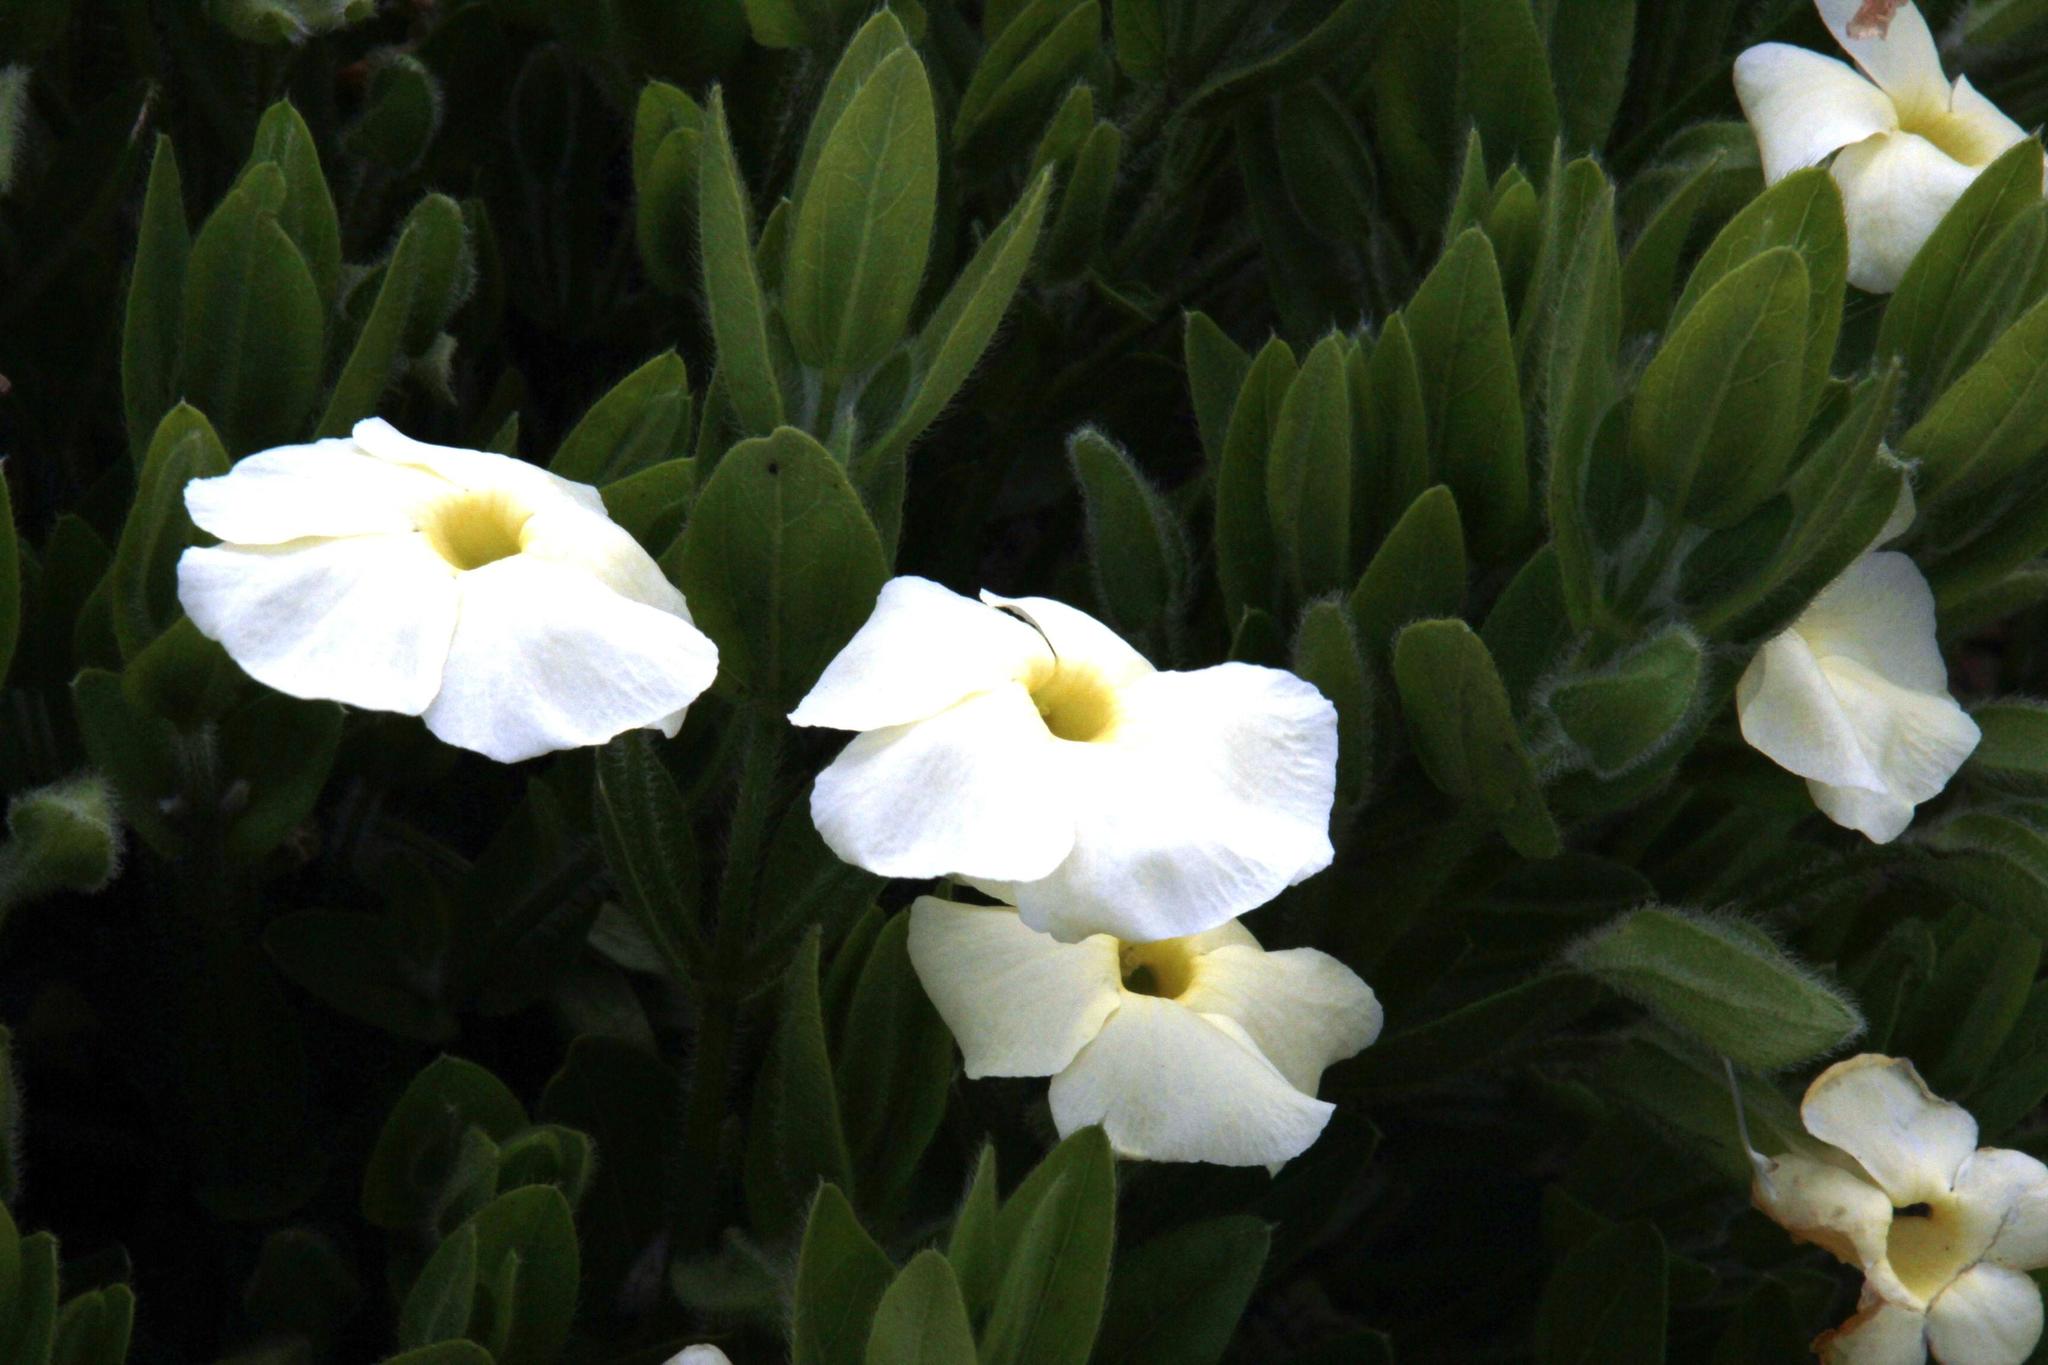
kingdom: Plantae
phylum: Tracheophyta
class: Magnoliopsida
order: Lamiales
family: Acanthaceae
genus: Thunbergia
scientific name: Thunbergia atriplicifolia
